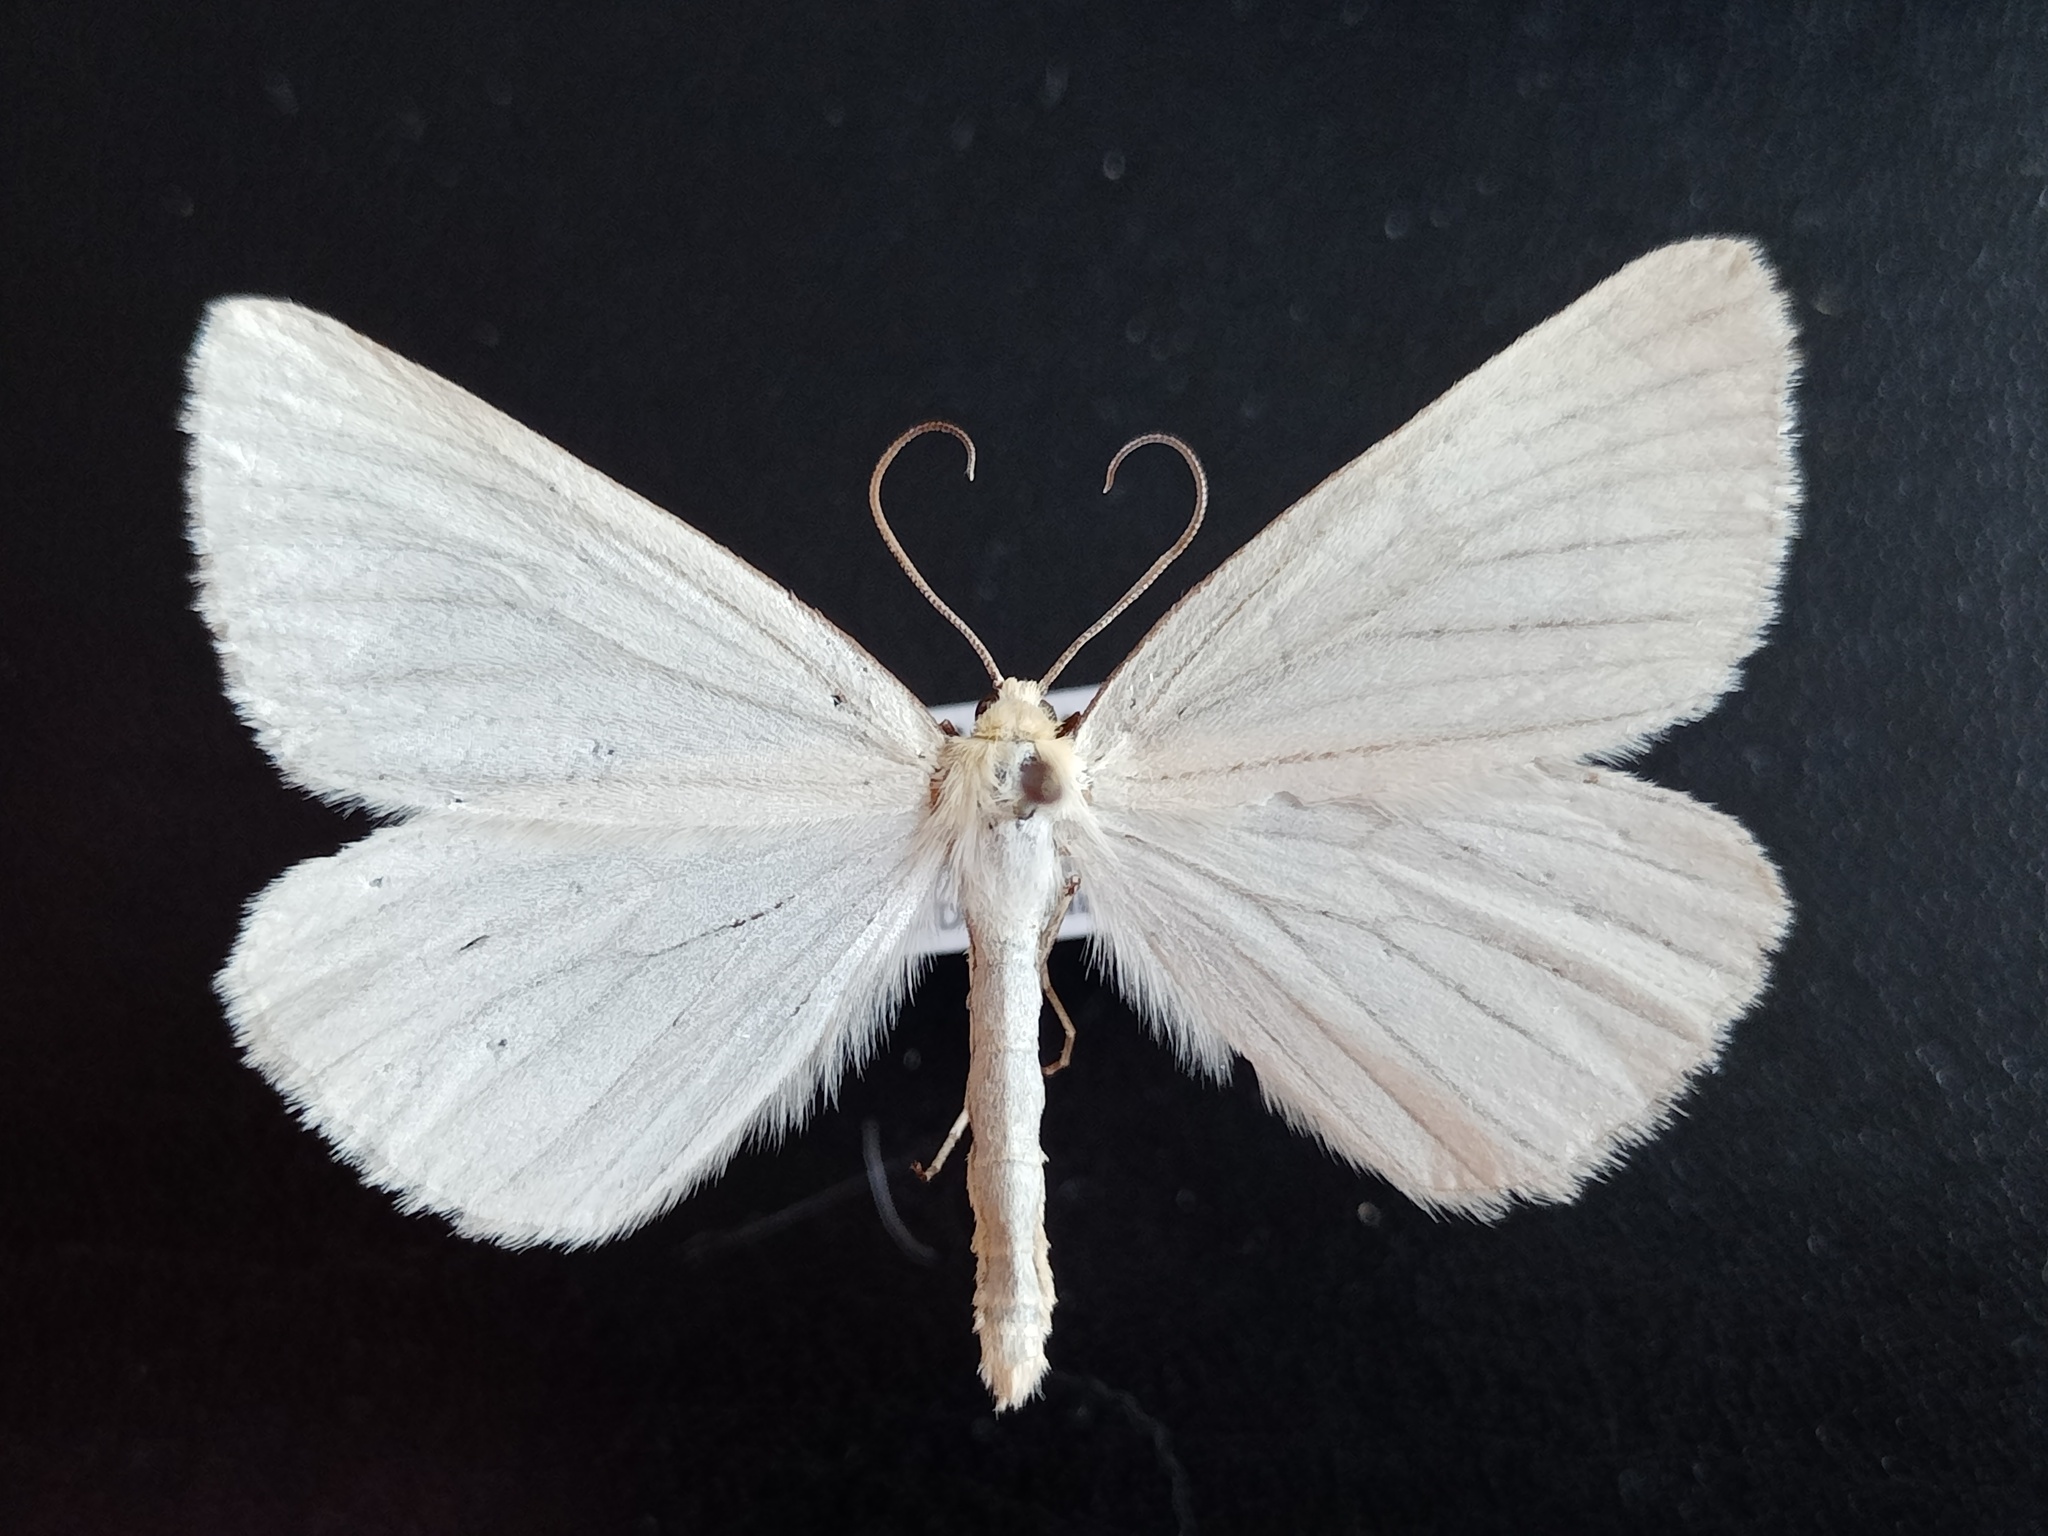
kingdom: Animalia
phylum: Arthropoda
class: Insecta
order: Lepidoptera
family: Geometridae
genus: Siona
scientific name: Siona lineata
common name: Black-veined moth
